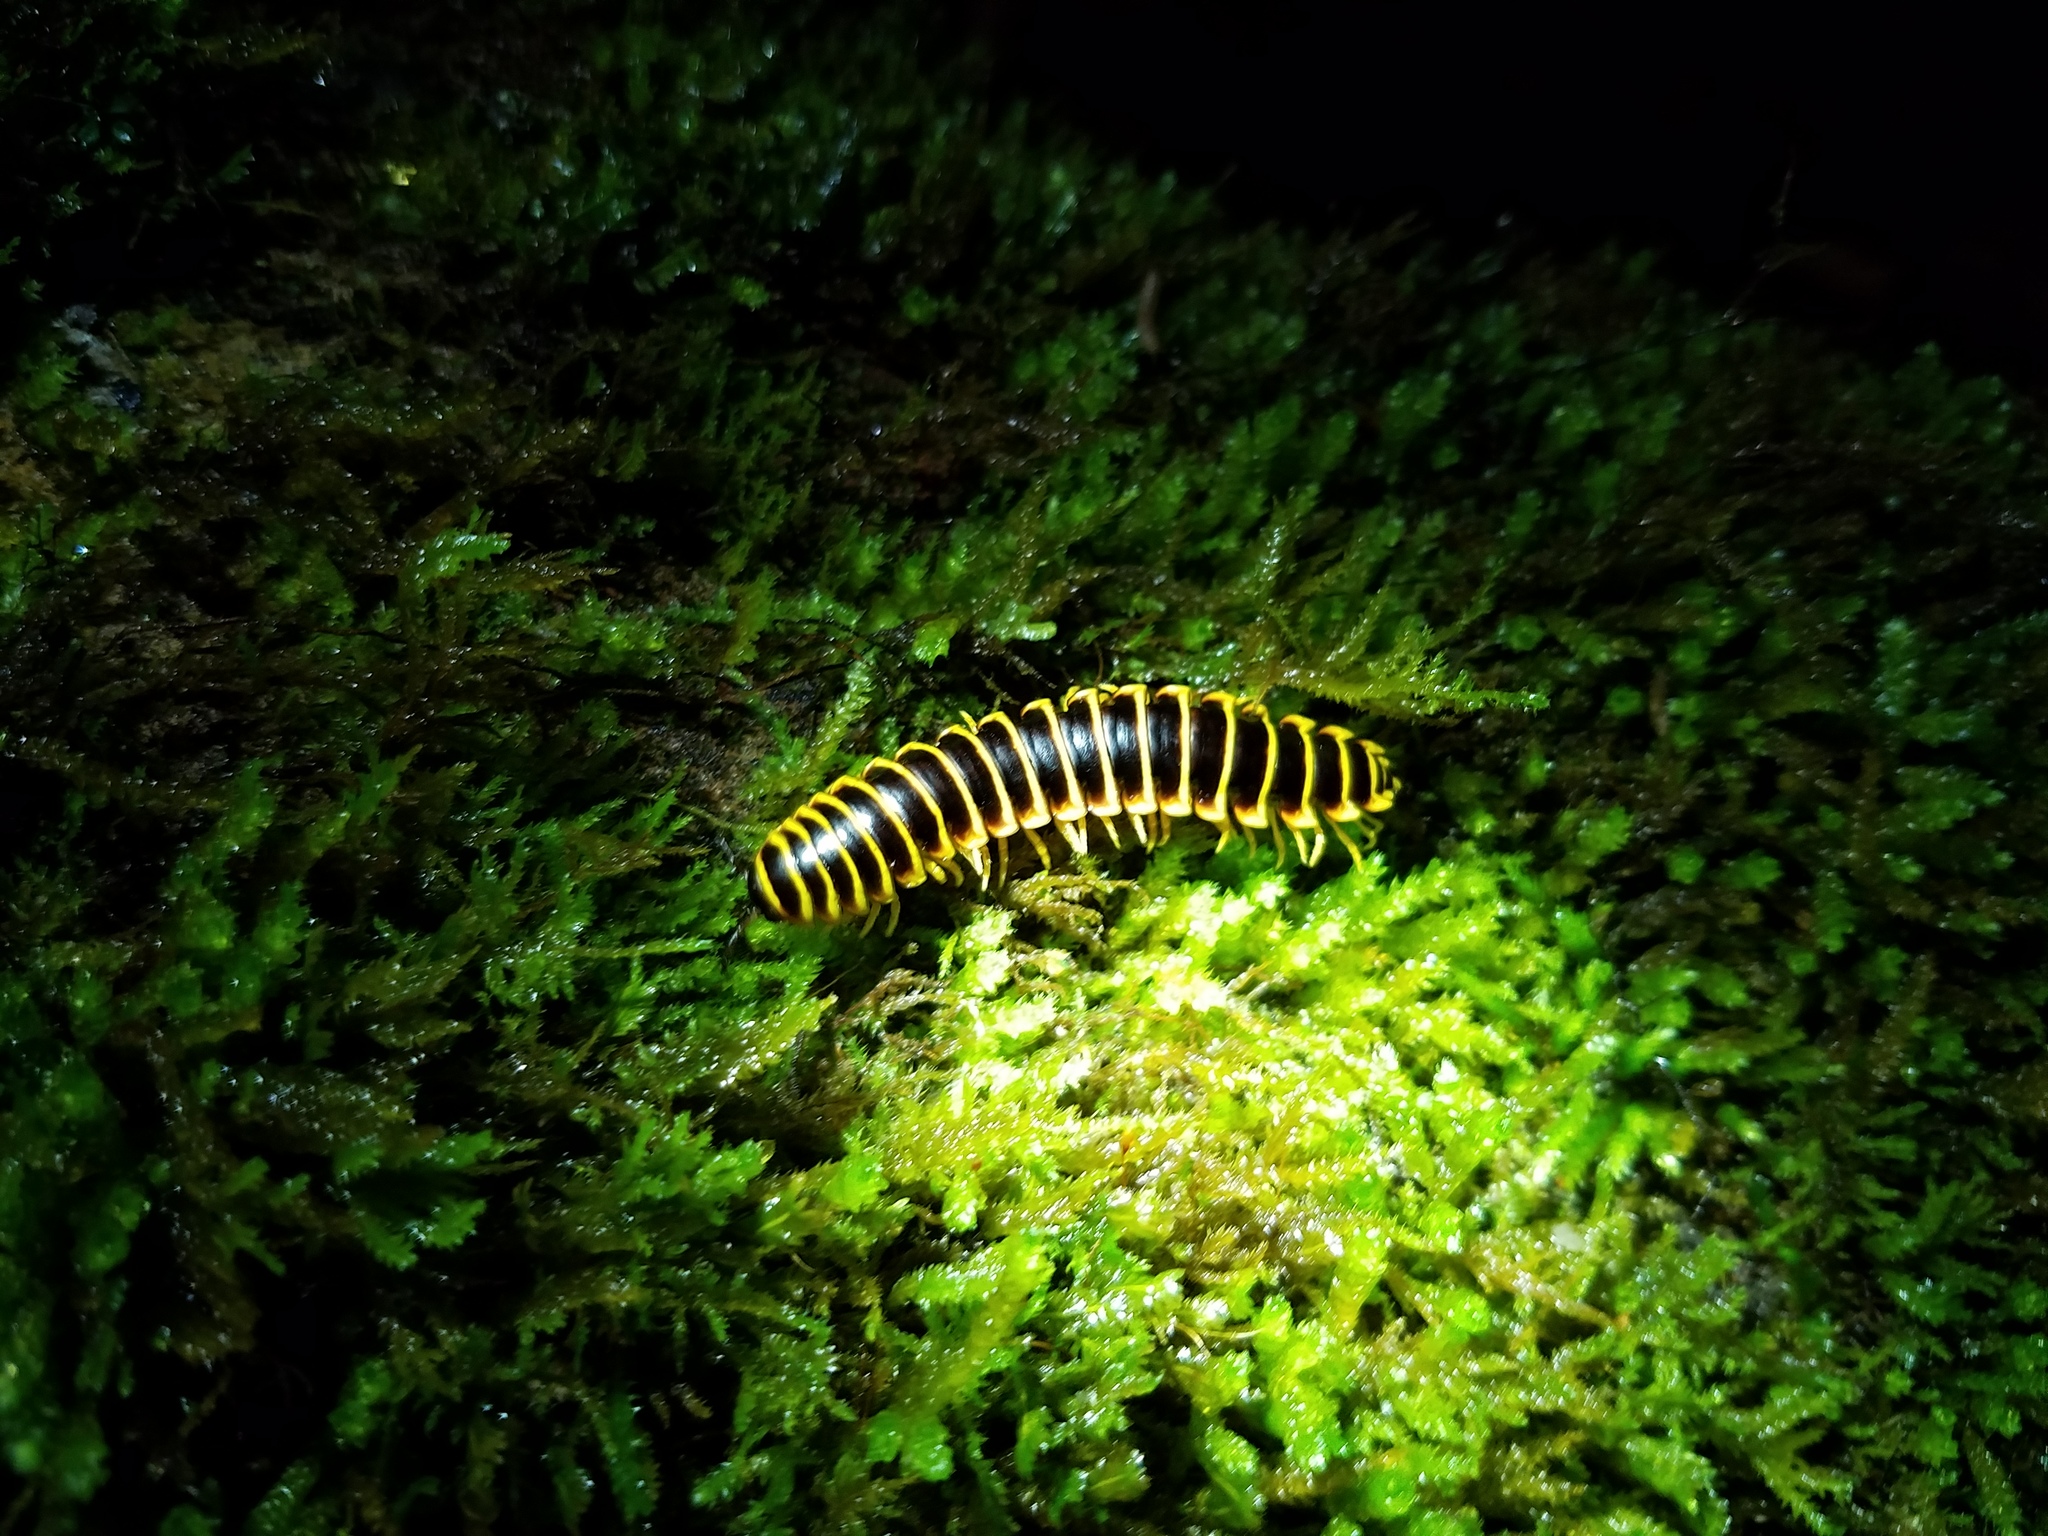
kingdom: Animalia
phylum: Arthropoda
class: Diplopoda
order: Polydesmida
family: Xystodesmidae
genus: Apheloria
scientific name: Apheloria virginiensis
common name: Black-and-gold flat millipede
